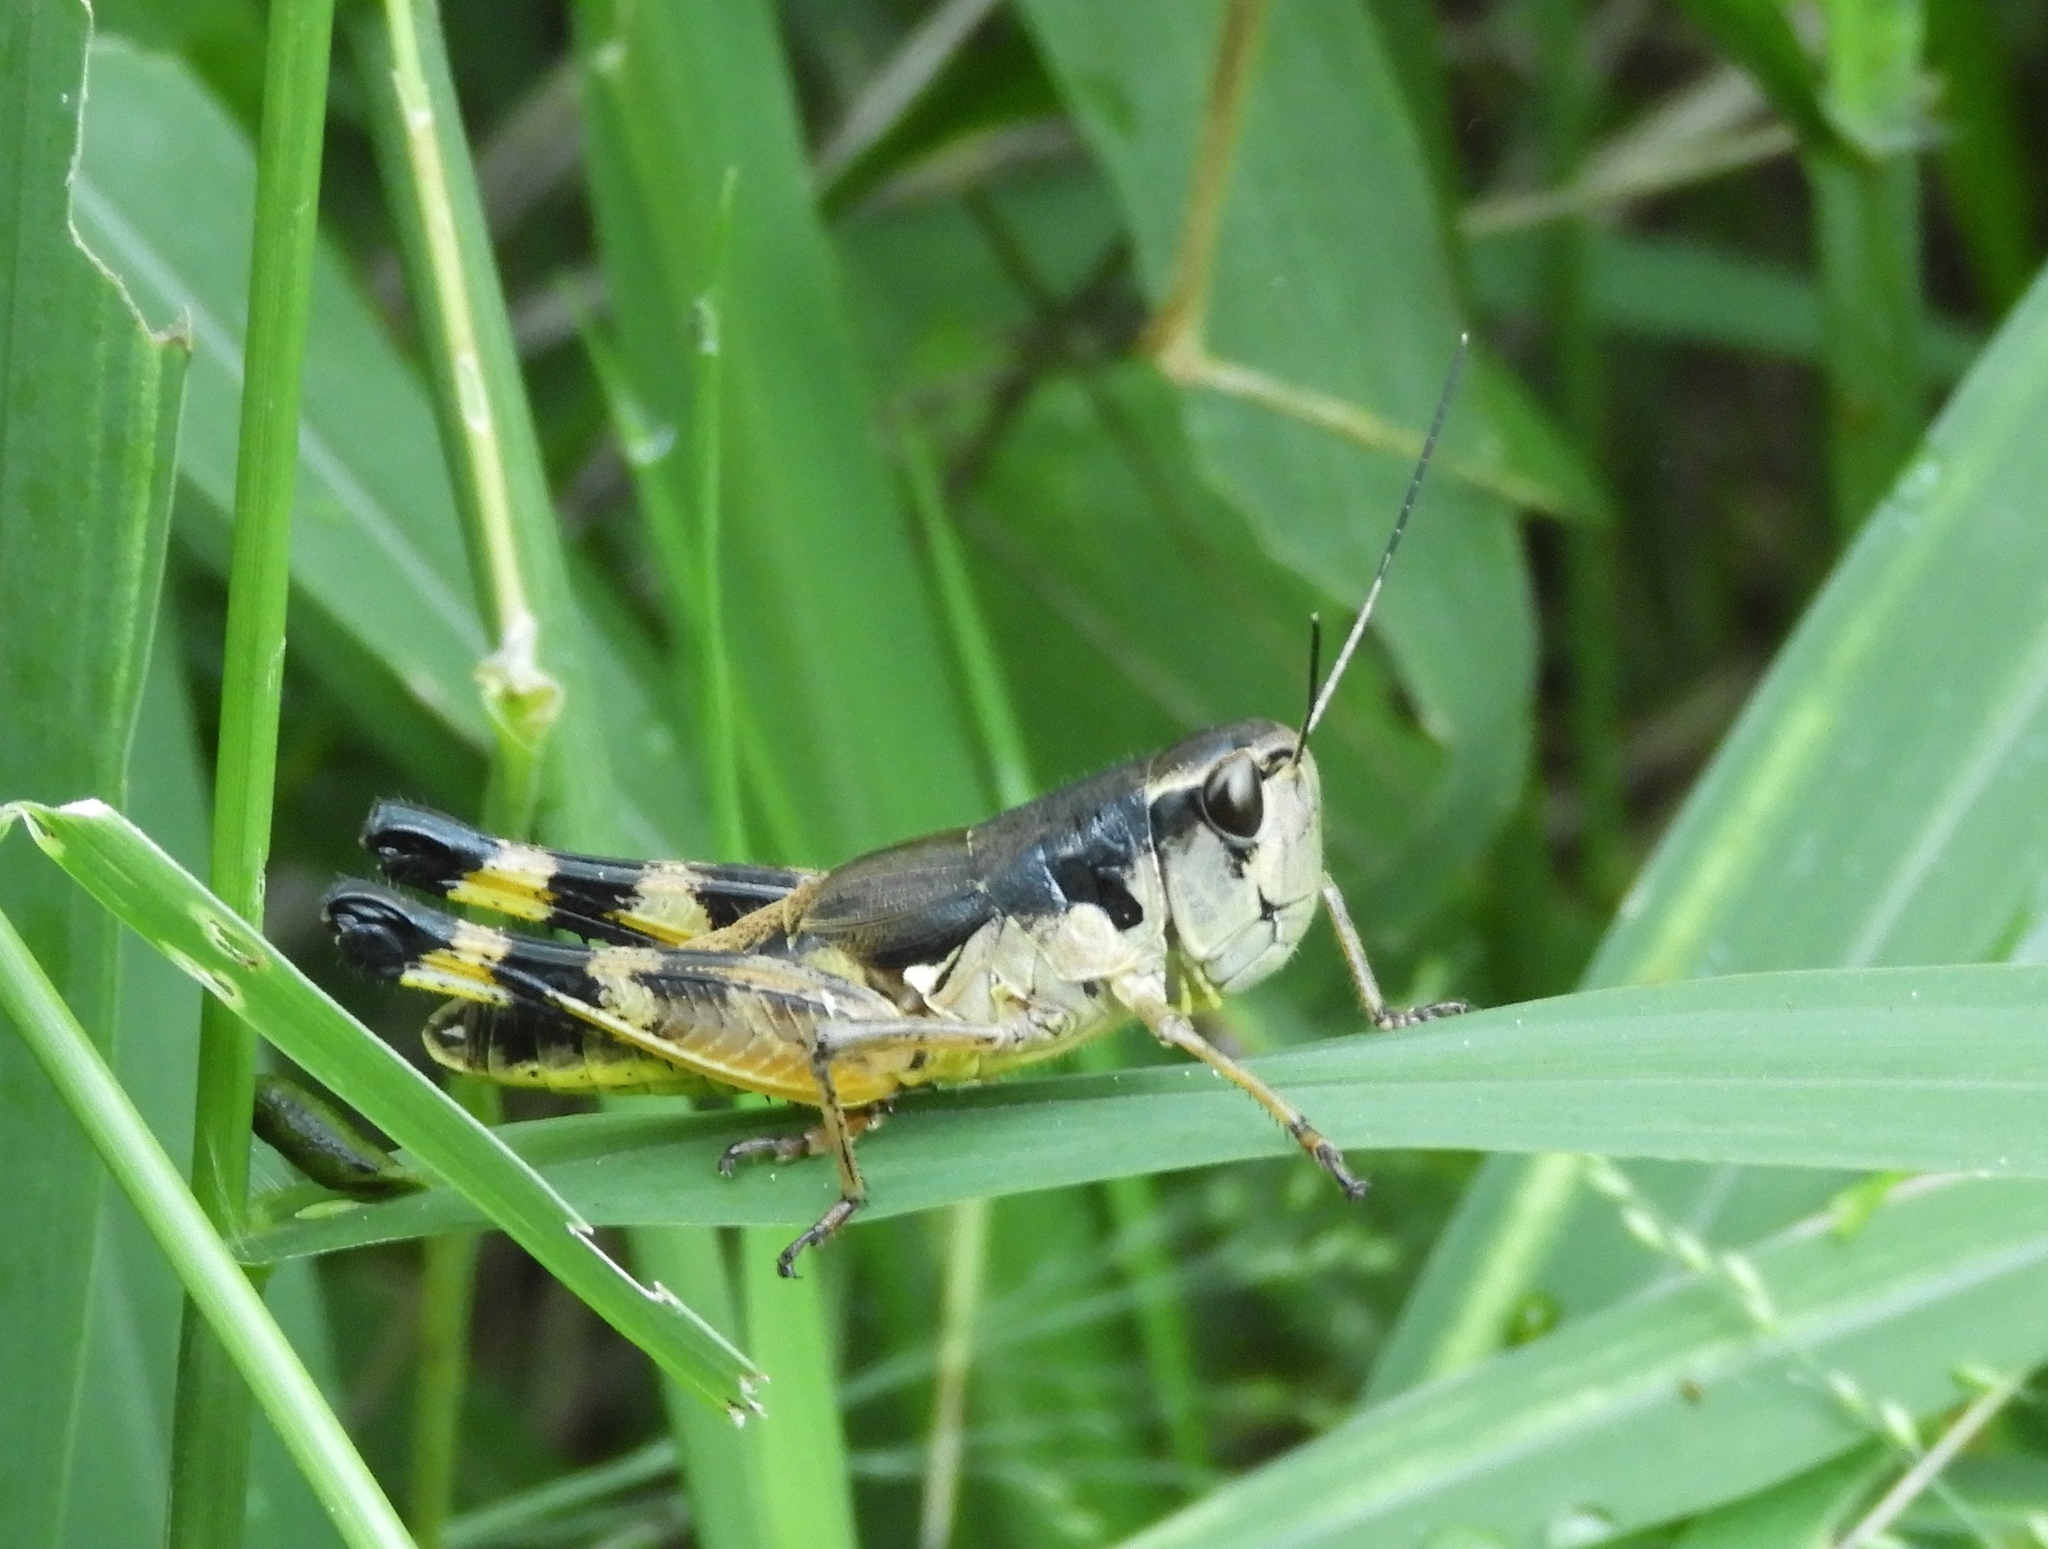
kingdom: Animalia
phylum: Arthropoda
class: Insecta
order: Orthoptera
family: Acrididae
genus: Boopedon
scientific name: Boopedon flaviventris
